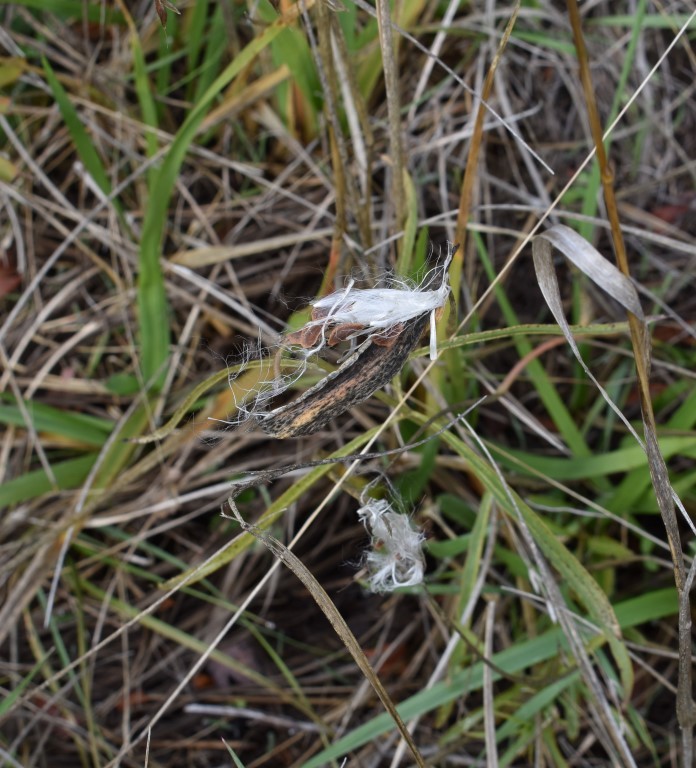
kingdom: Plantae
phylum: Tracheophyta
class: Magnoliopsida
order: Gentianales
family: Apocynaceae
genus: Asclepias
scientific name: Asclepias fascicularis
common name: Mexican milkweed
